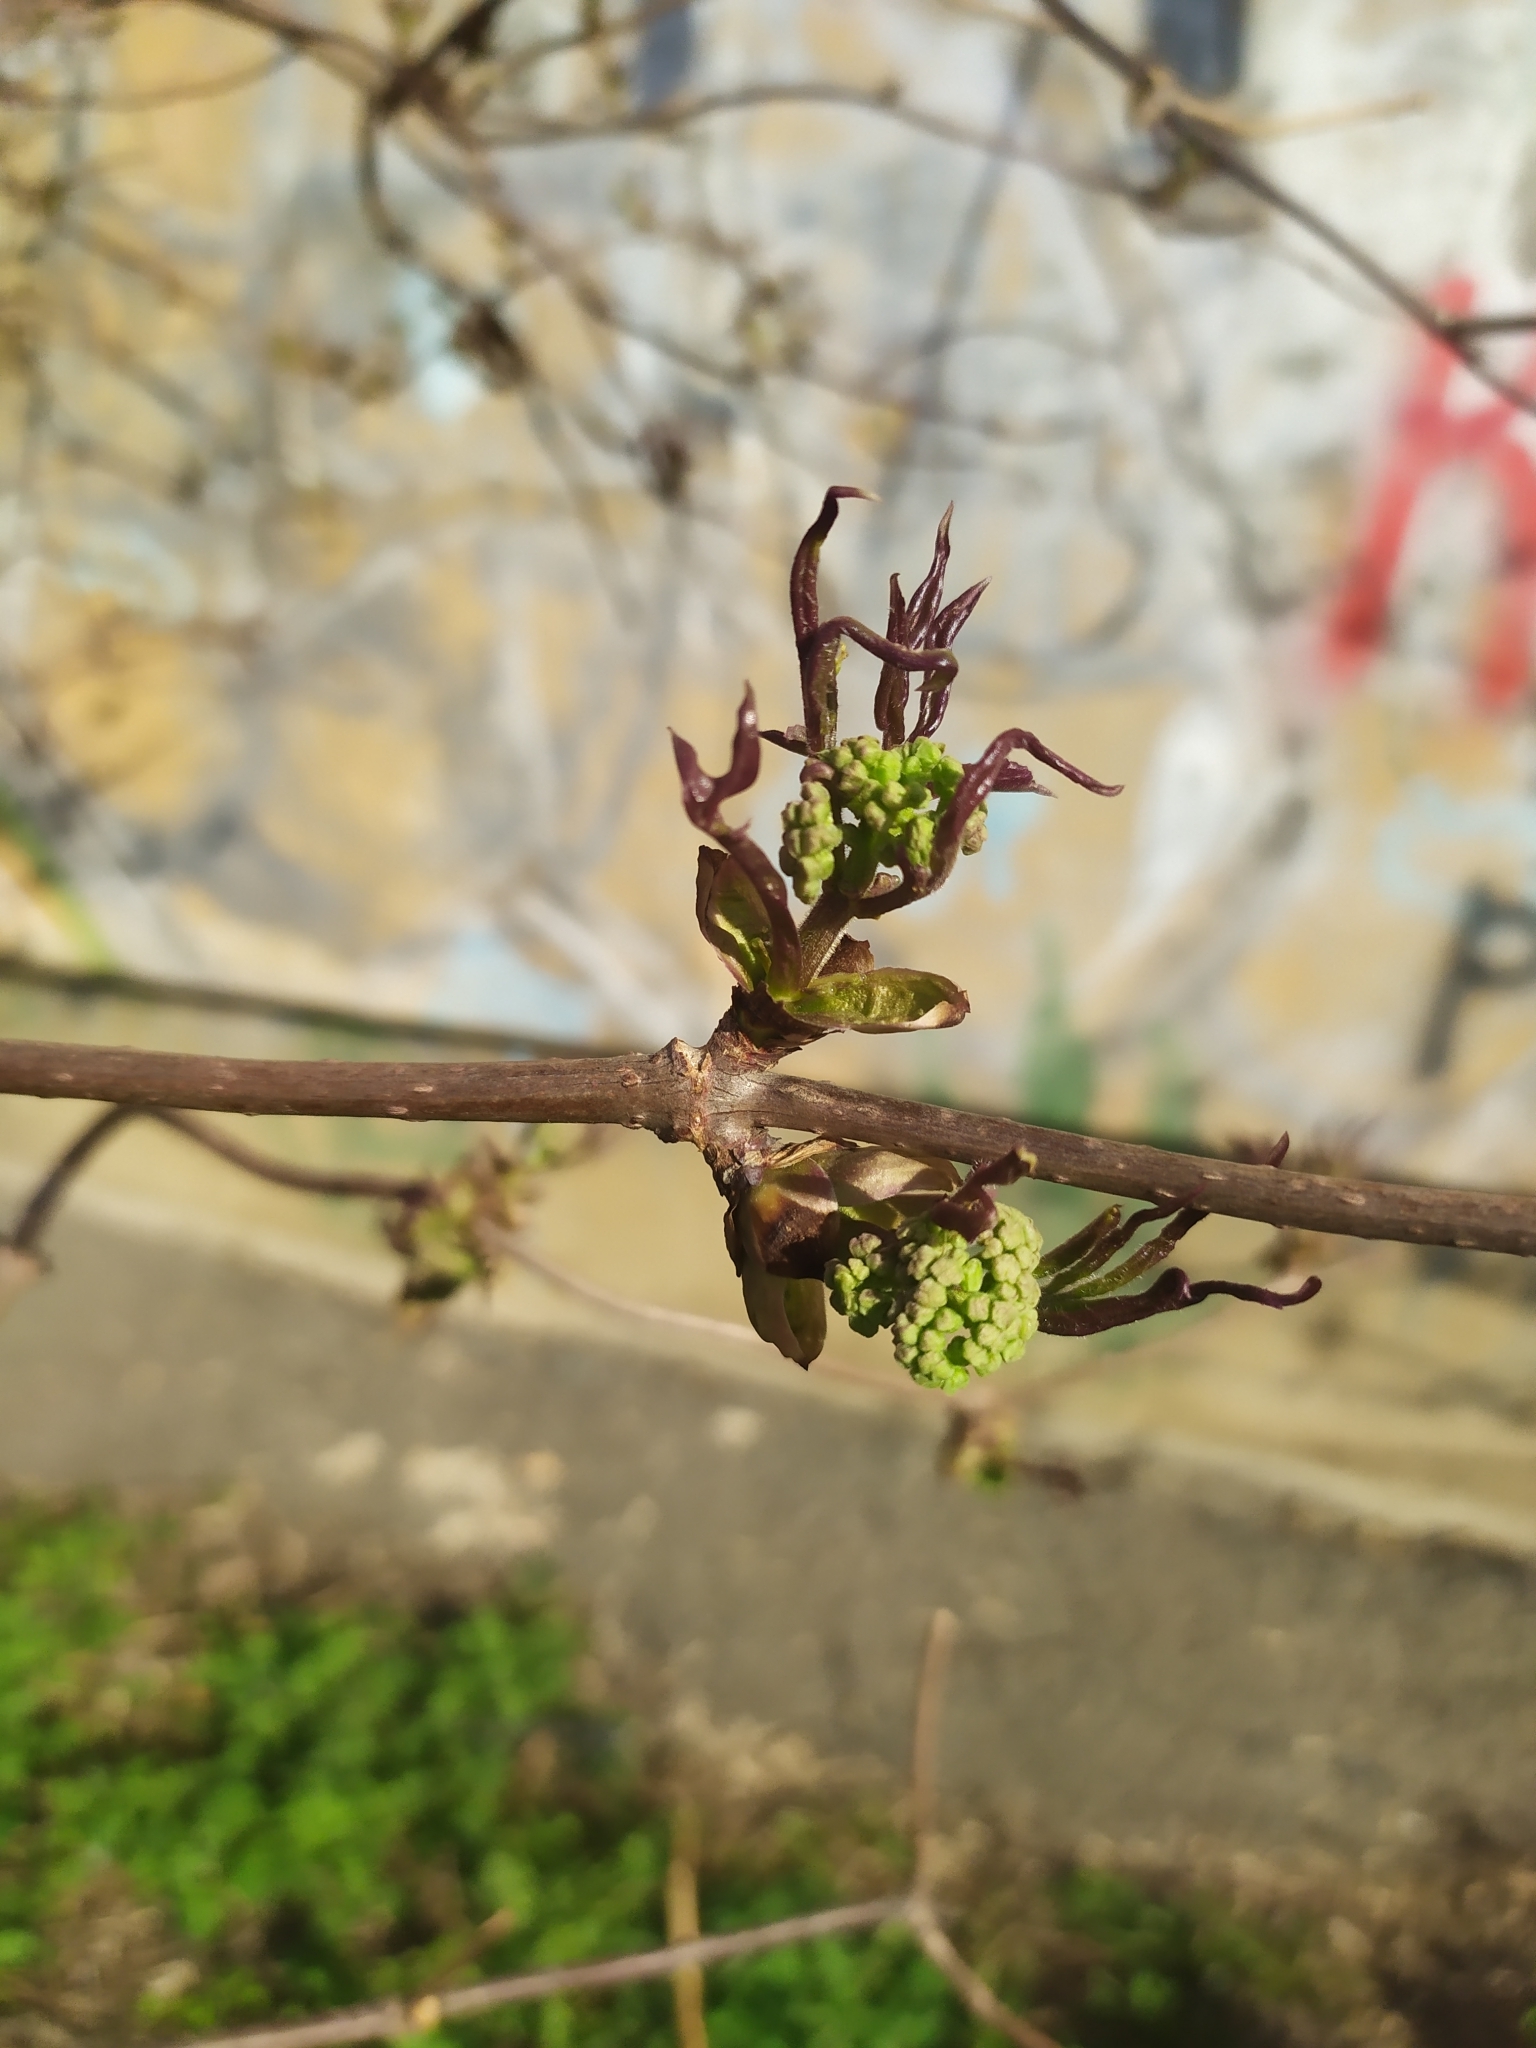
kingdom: Plantae
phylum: Tracheophyta
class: Magnoliopsida
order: Dipsacales
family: Viburnaceae
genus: Sambucus
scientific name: Sambucus racemosa
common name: Red-berried elder
